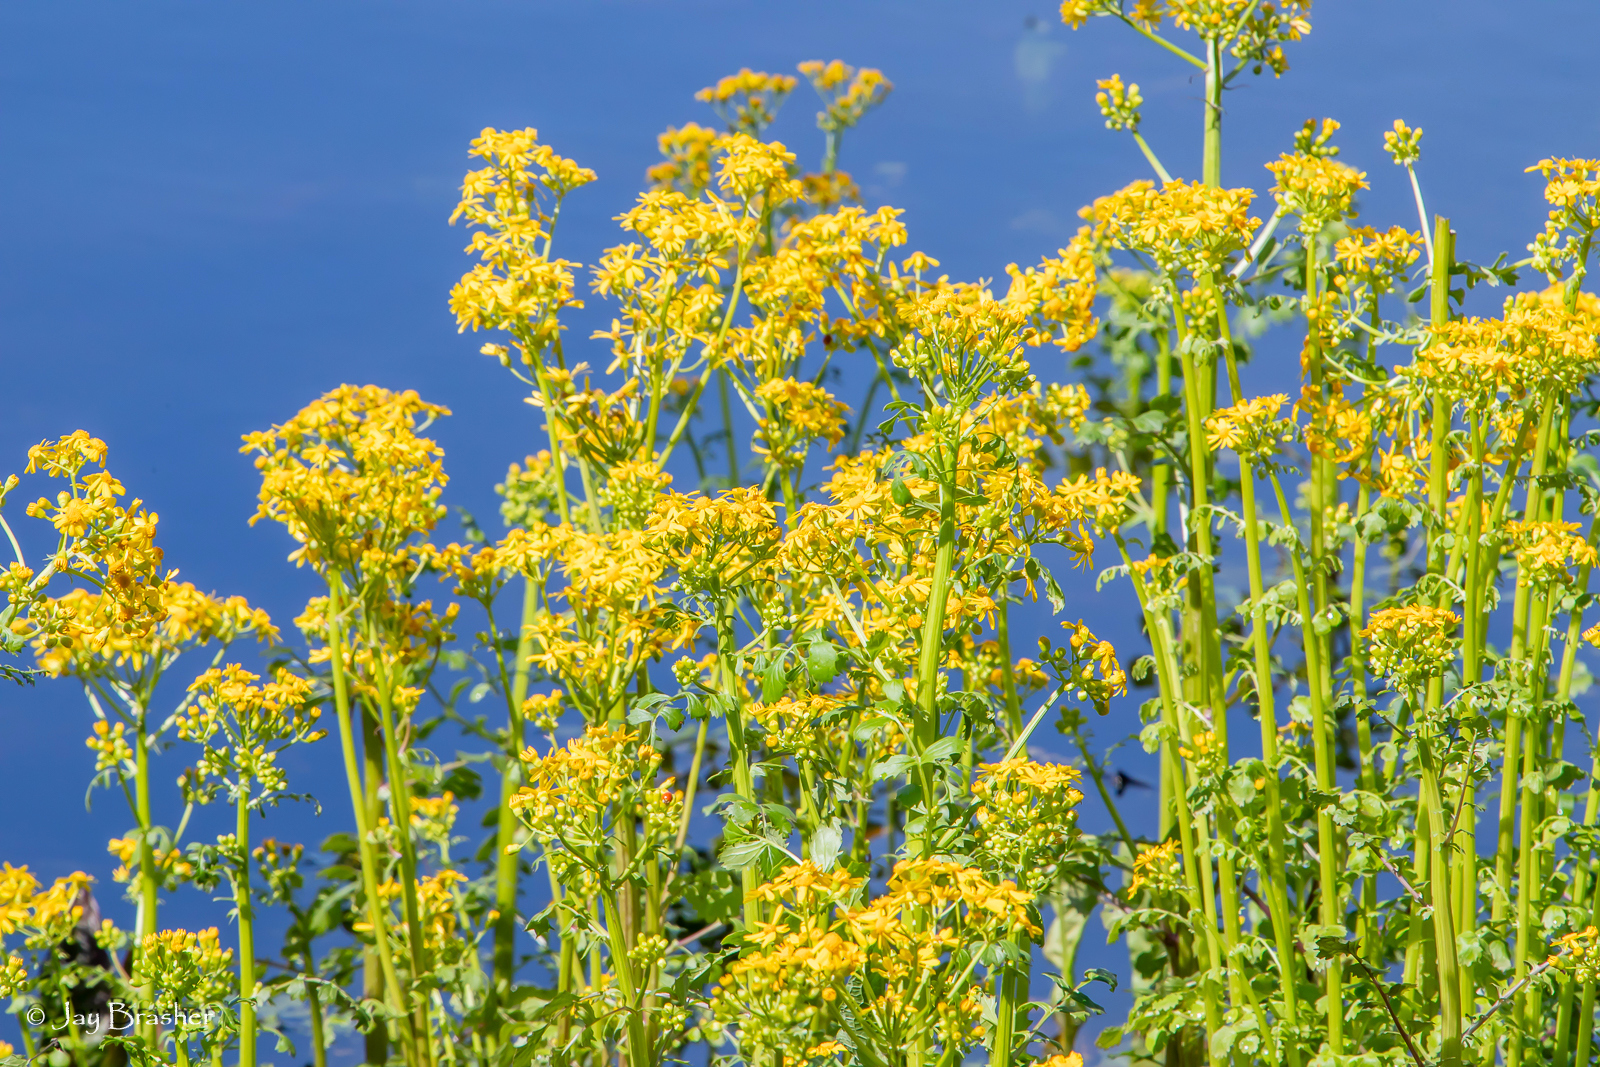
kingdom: Plantae
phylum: Tracheophyta
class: Magnoliopsida
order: Asterales
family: Asteraceae
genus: Packera
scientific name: Packera glabella
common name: Butterweed
